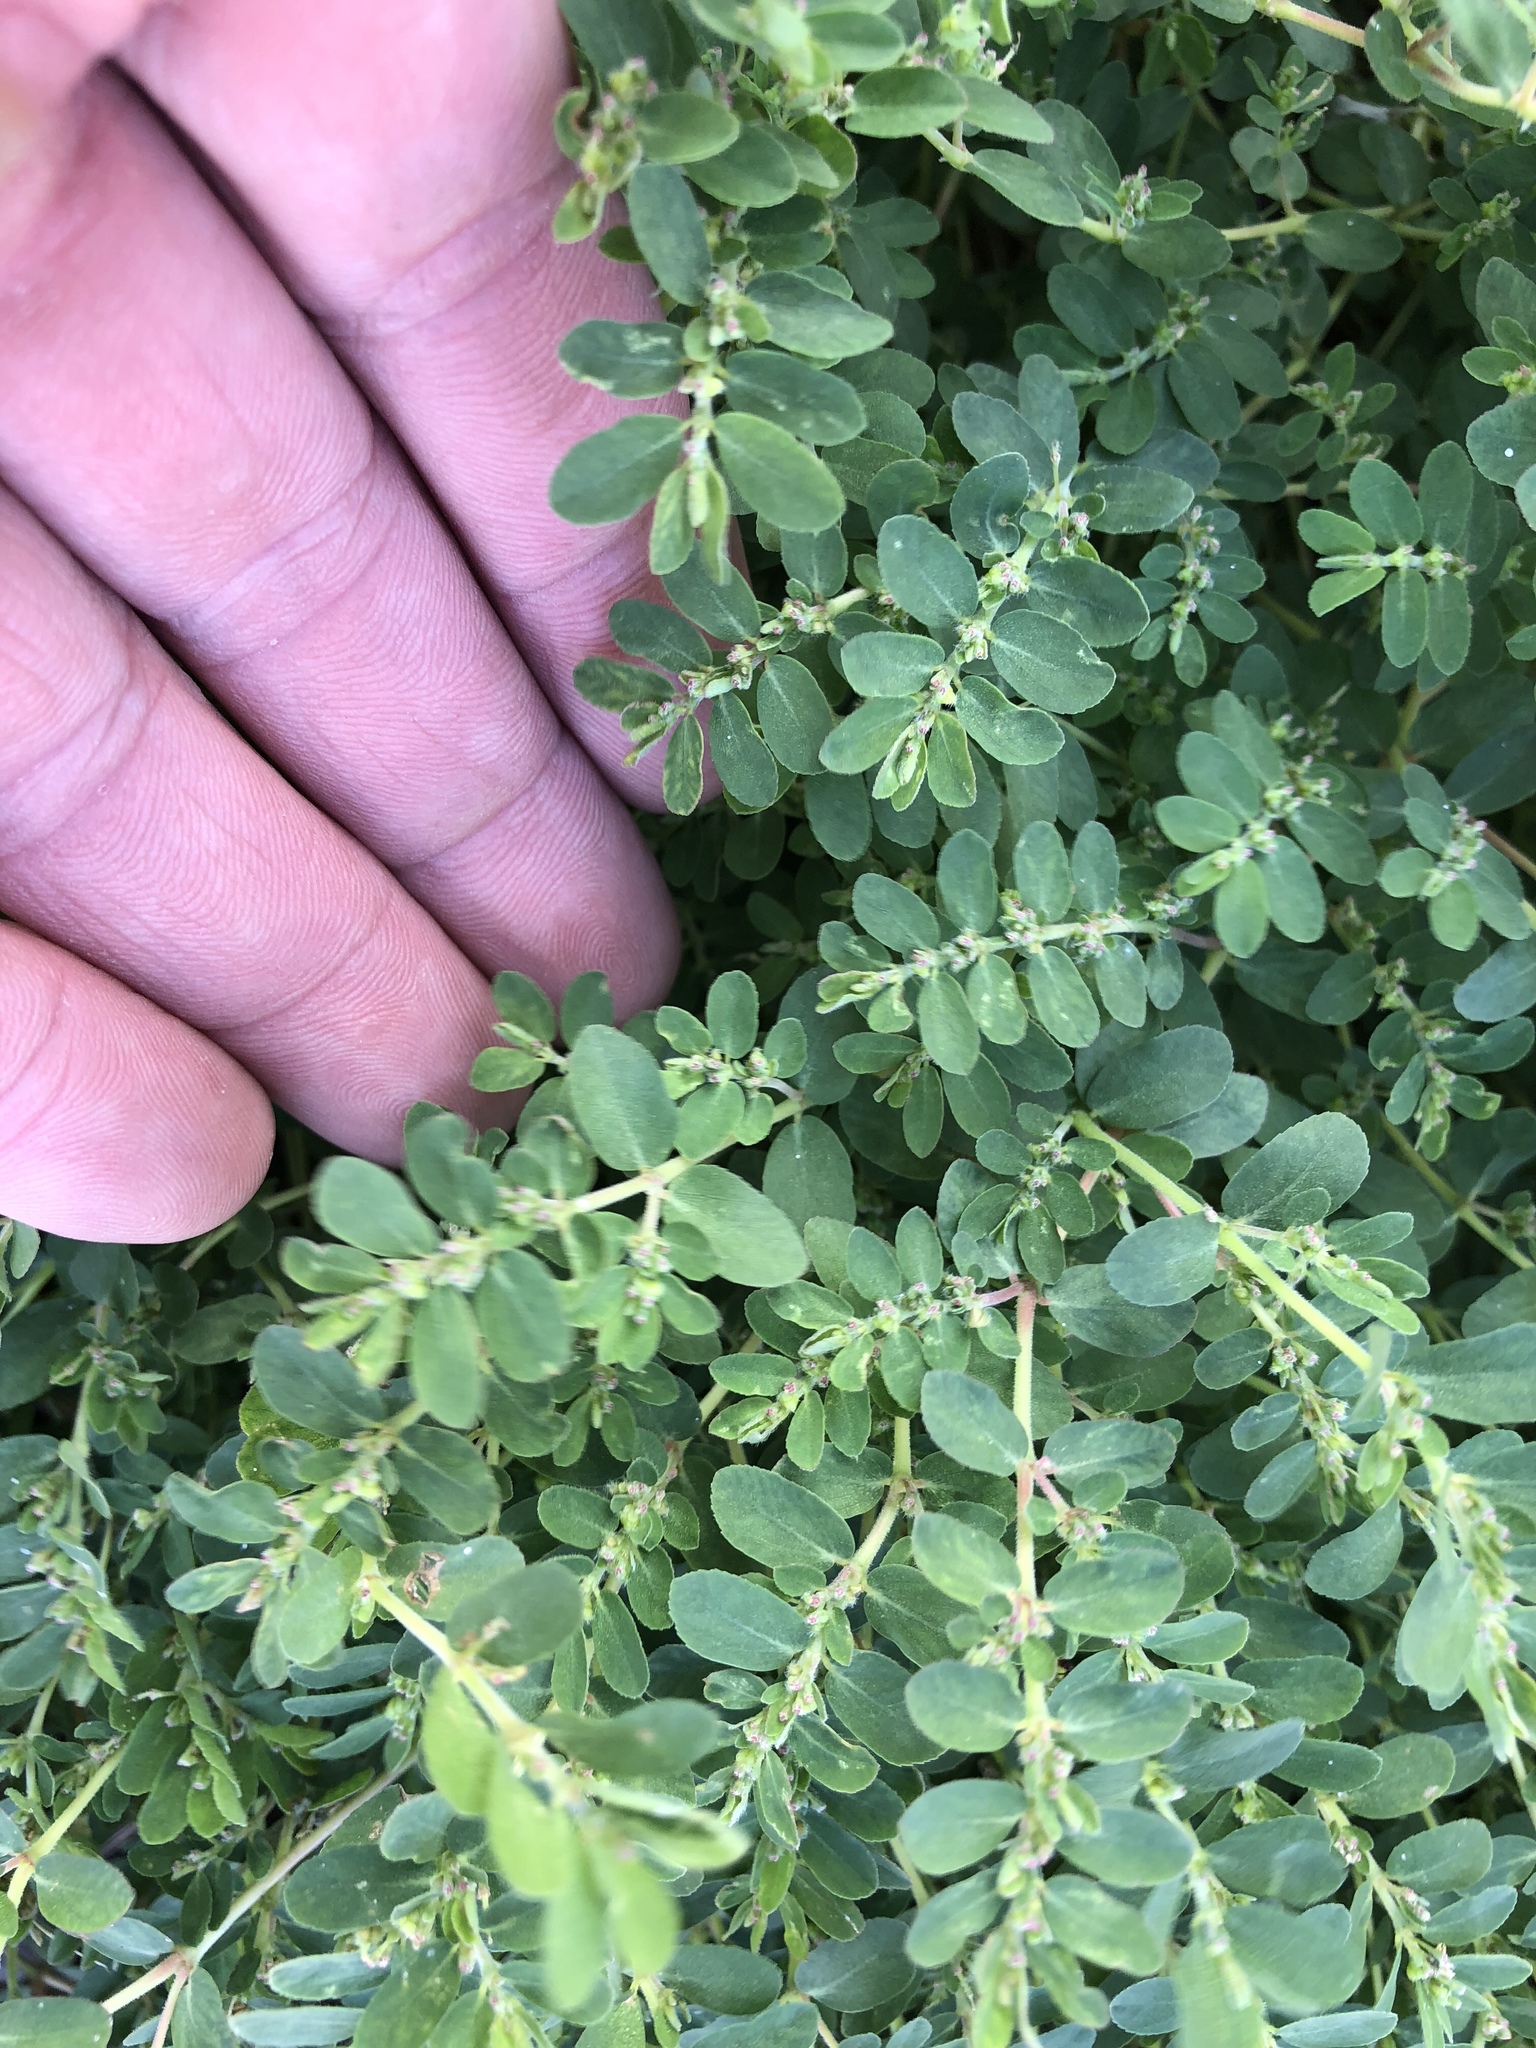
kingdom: Plantae
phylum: Tracheophyta
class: Magnoliopsida
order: Malpighiales
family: Euphorbiaceae
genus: Euphorbia
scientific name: Euphorbia prostrata
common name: Prostrate sandmat
